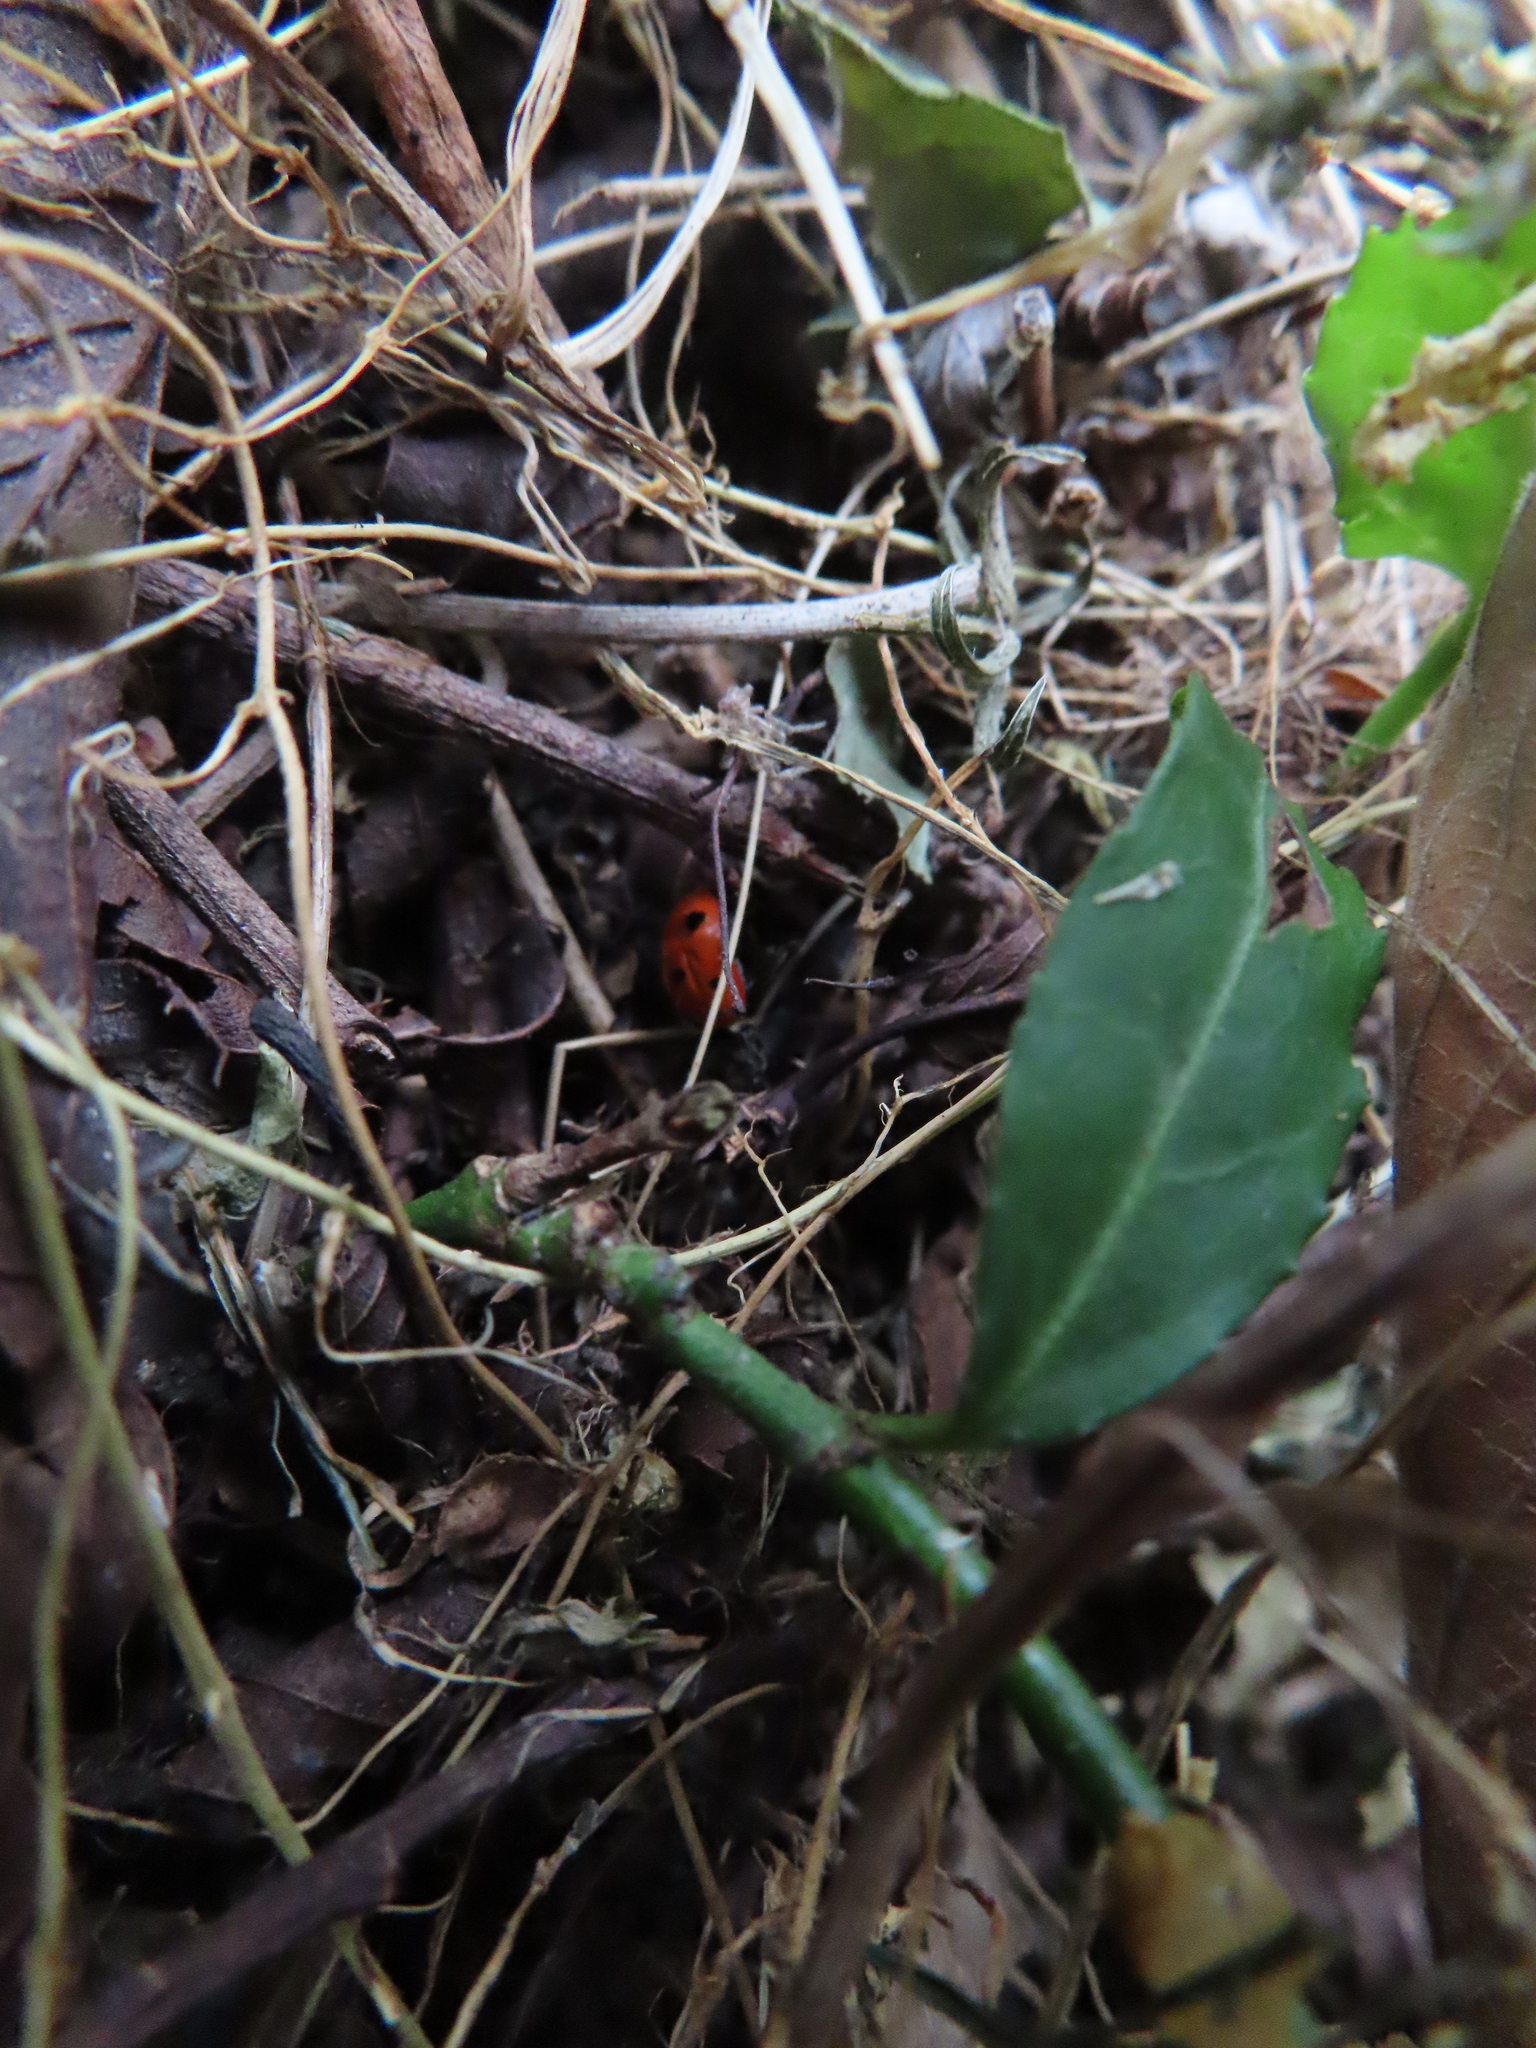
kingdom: Animalia
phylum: Arthropoda
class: Insecta
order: Coleoptera
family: Coccinellidae
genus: Coccinella
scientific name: Coccinella septempunctata
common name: Sevenspotted lady beetle
